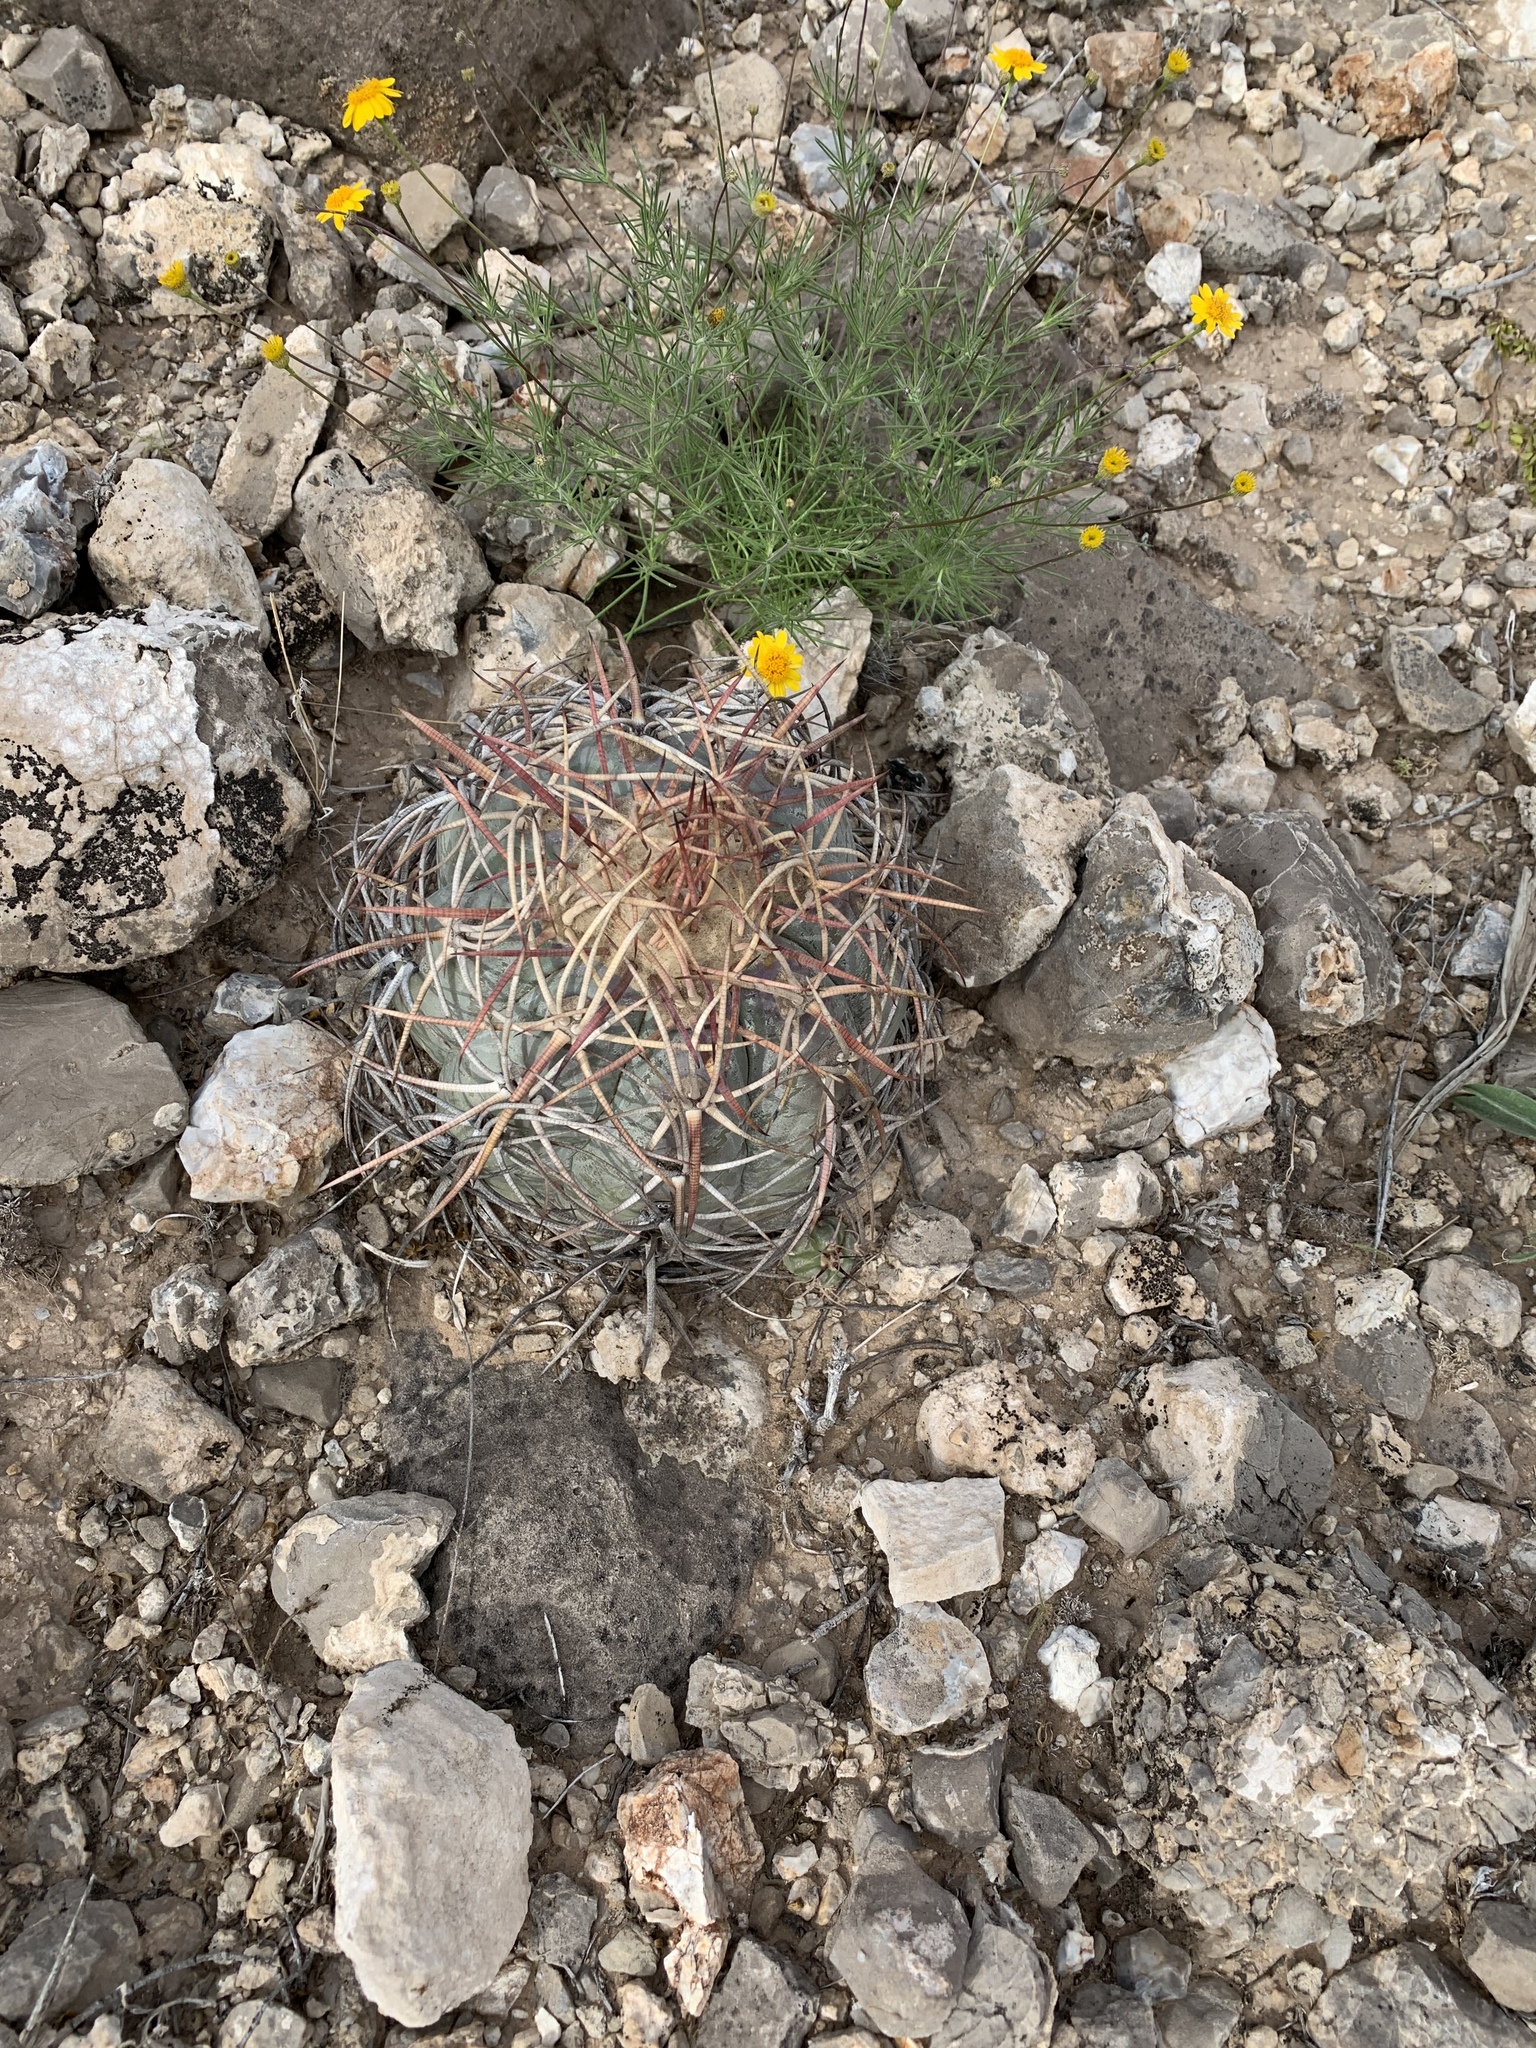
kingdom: Plantae
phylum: Tracheophyta
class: Magnoliopsida
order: Caryophyllales
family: Cactaceae
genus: Echinocactus
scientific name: Echinocactus horizonthalonius
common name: Devilshead
